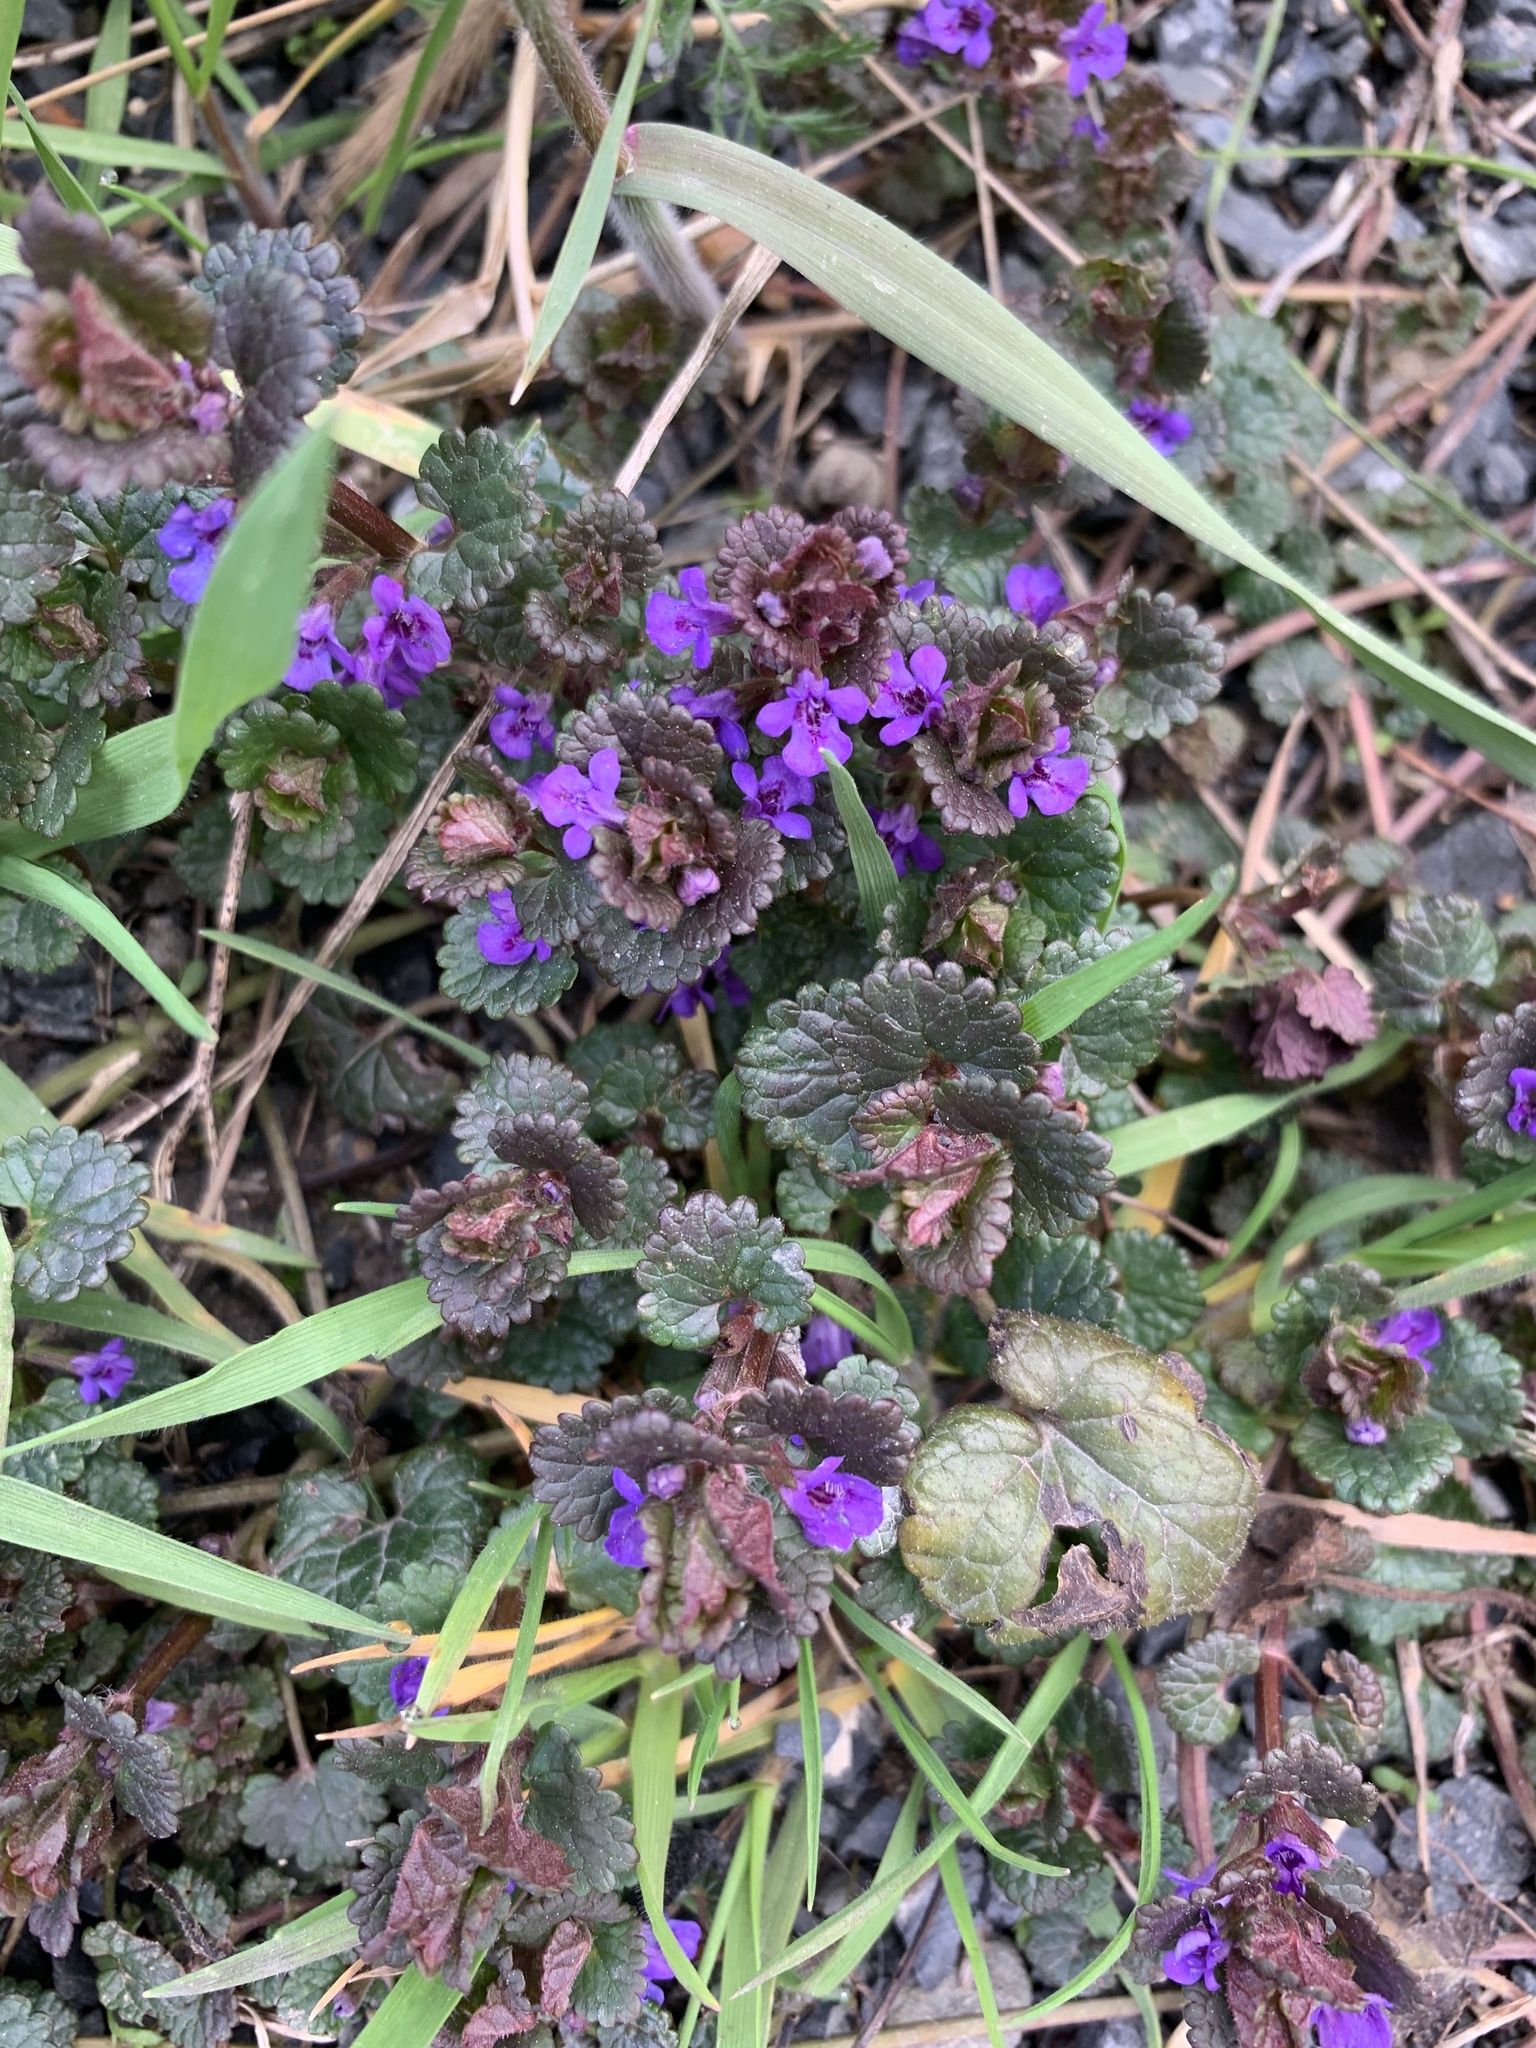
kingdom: Plantae
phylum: Tracheophyta
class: Magnoliopsida
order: Lamiales
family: Lamiaceae
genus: Glechoma
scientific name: Glechoma hederacea
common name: Ground ivy
